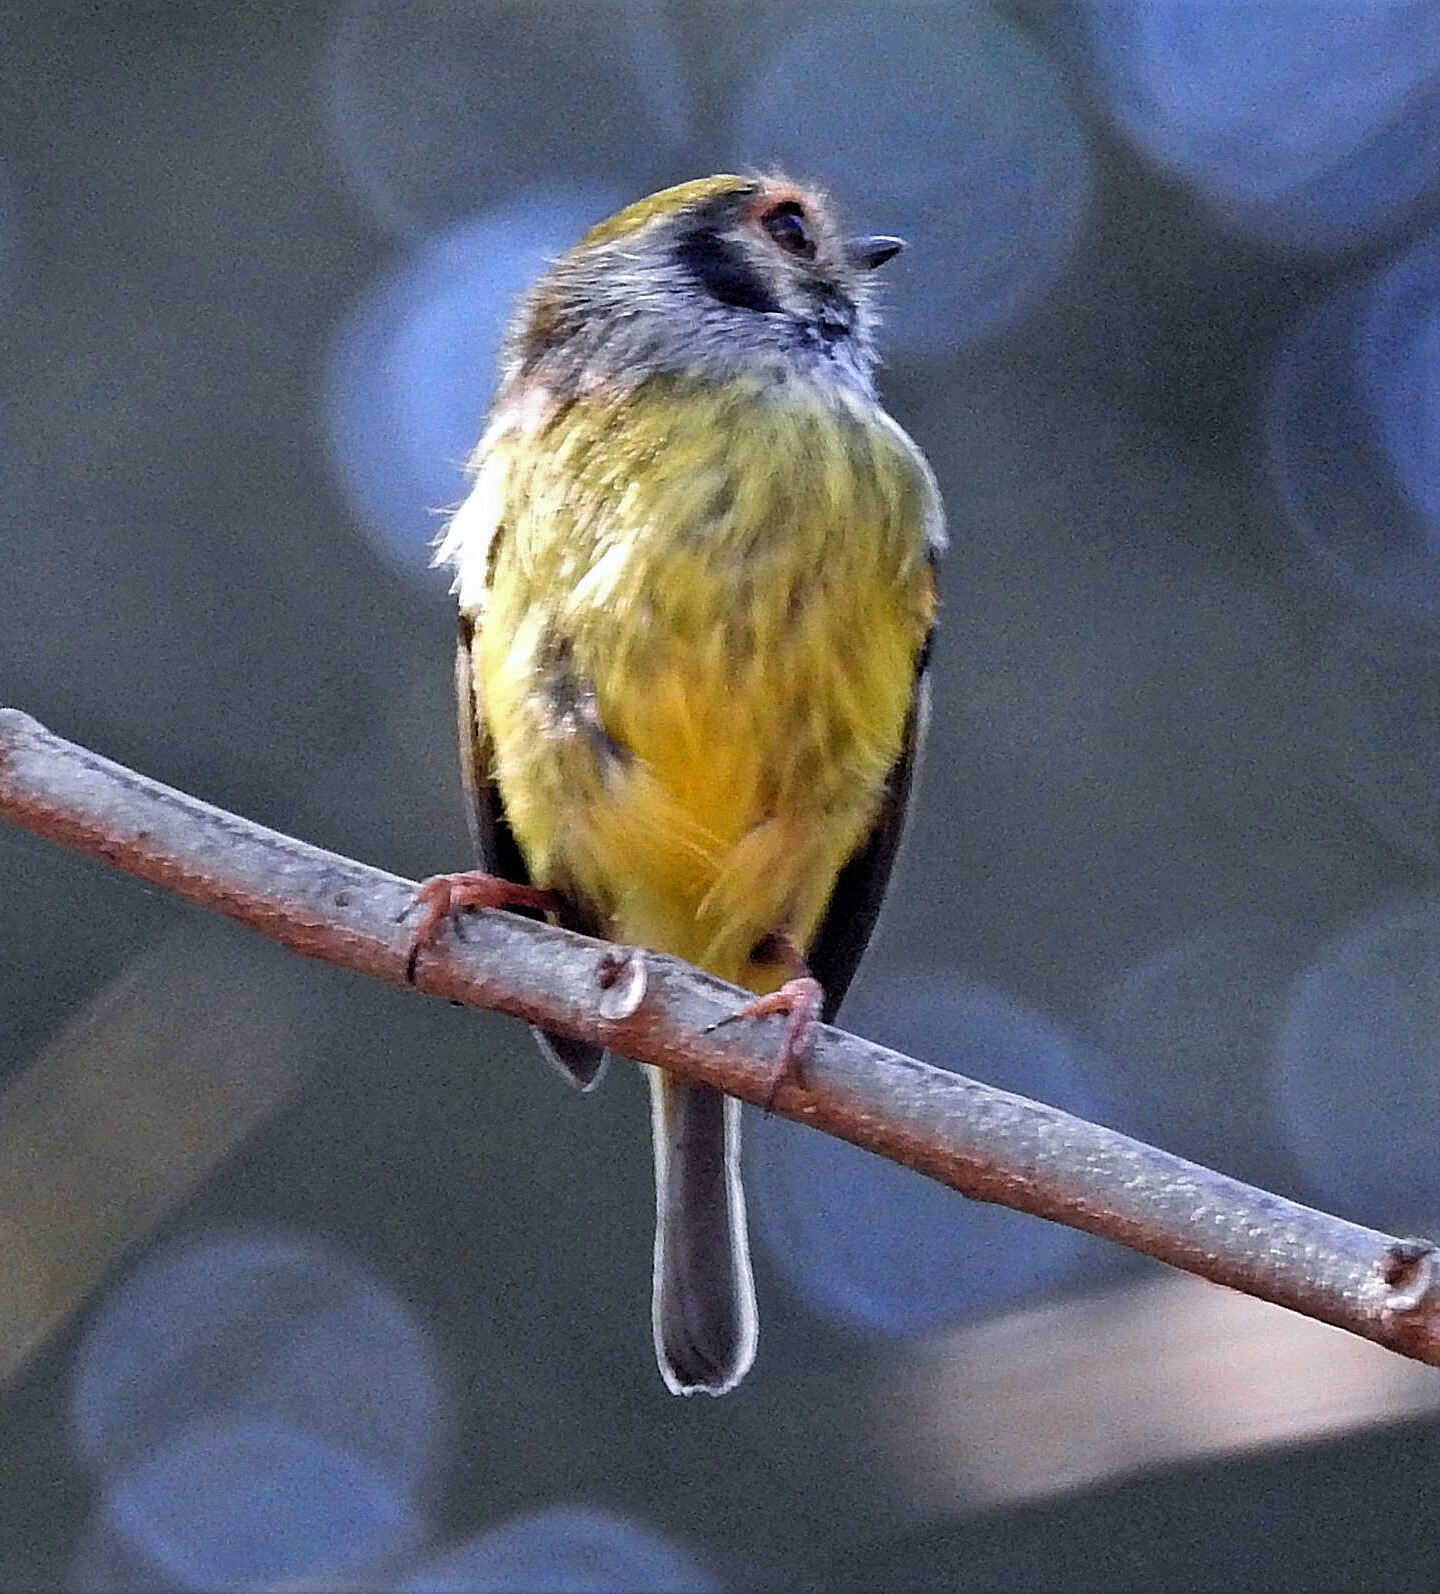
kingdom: Animalia
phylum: Chordata
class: Aves
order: Passeriformes
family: Tyrannidae
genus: Myiornis
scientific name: Myiornis auricularis
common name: Eared pygmy tyrant
